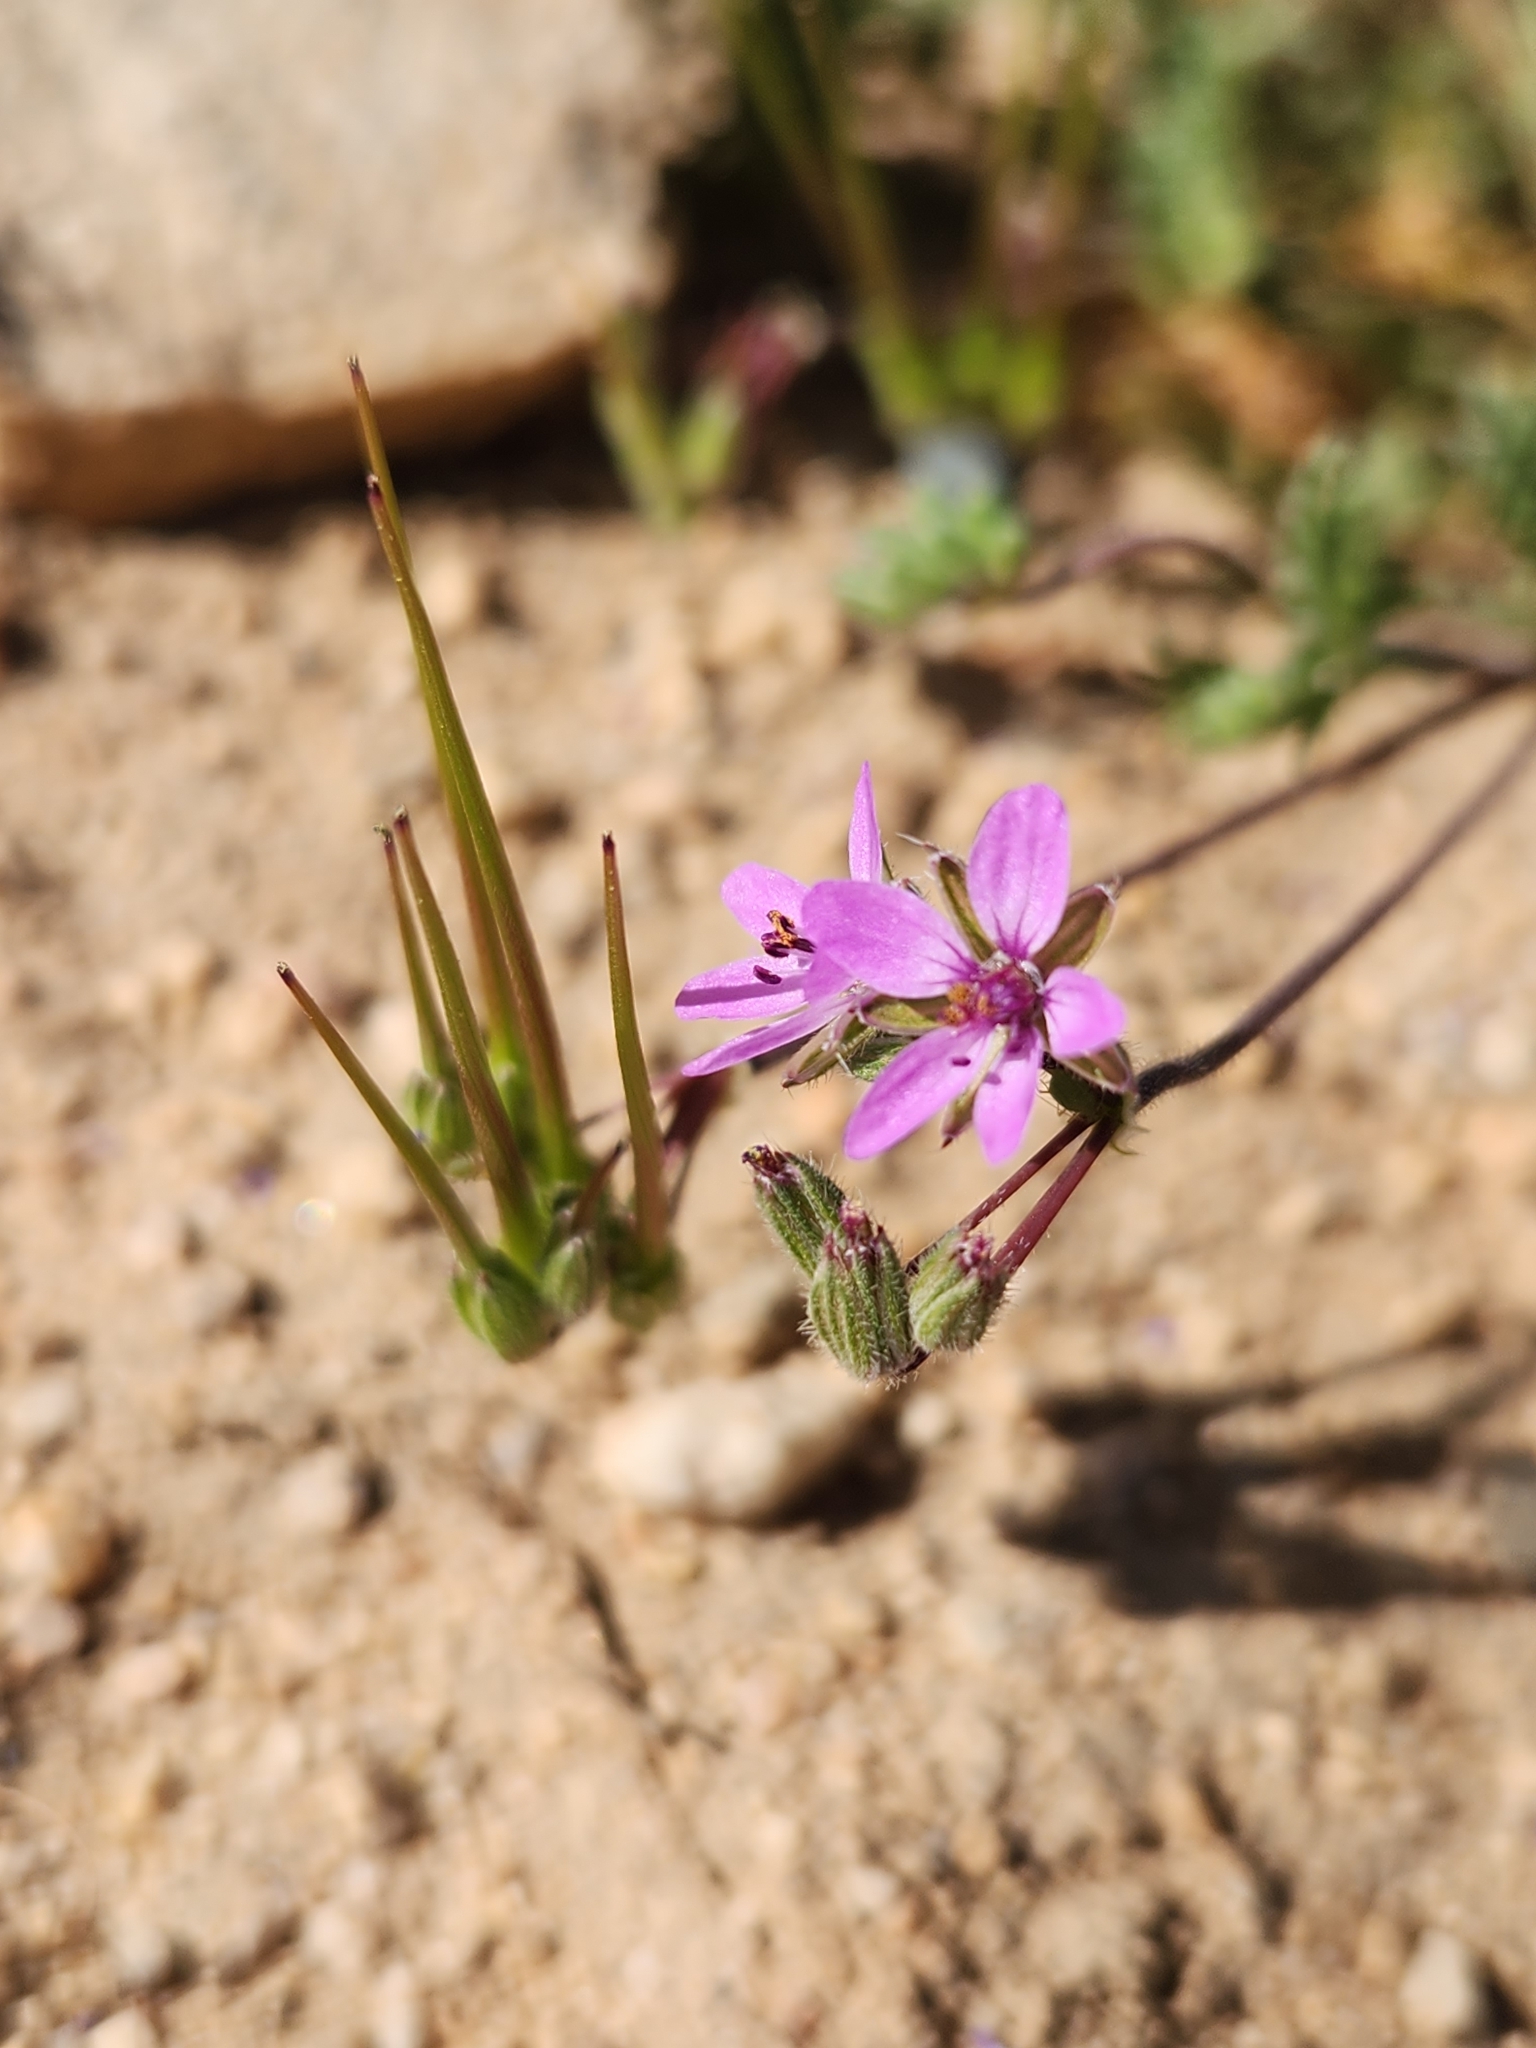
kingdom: Plantae
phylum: Tracheophyta
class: Magnoliopsida
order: Geraniales
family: Geraniaceae
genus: Erodium
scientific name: Erodium cicutarium
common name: Common stork's-bill
